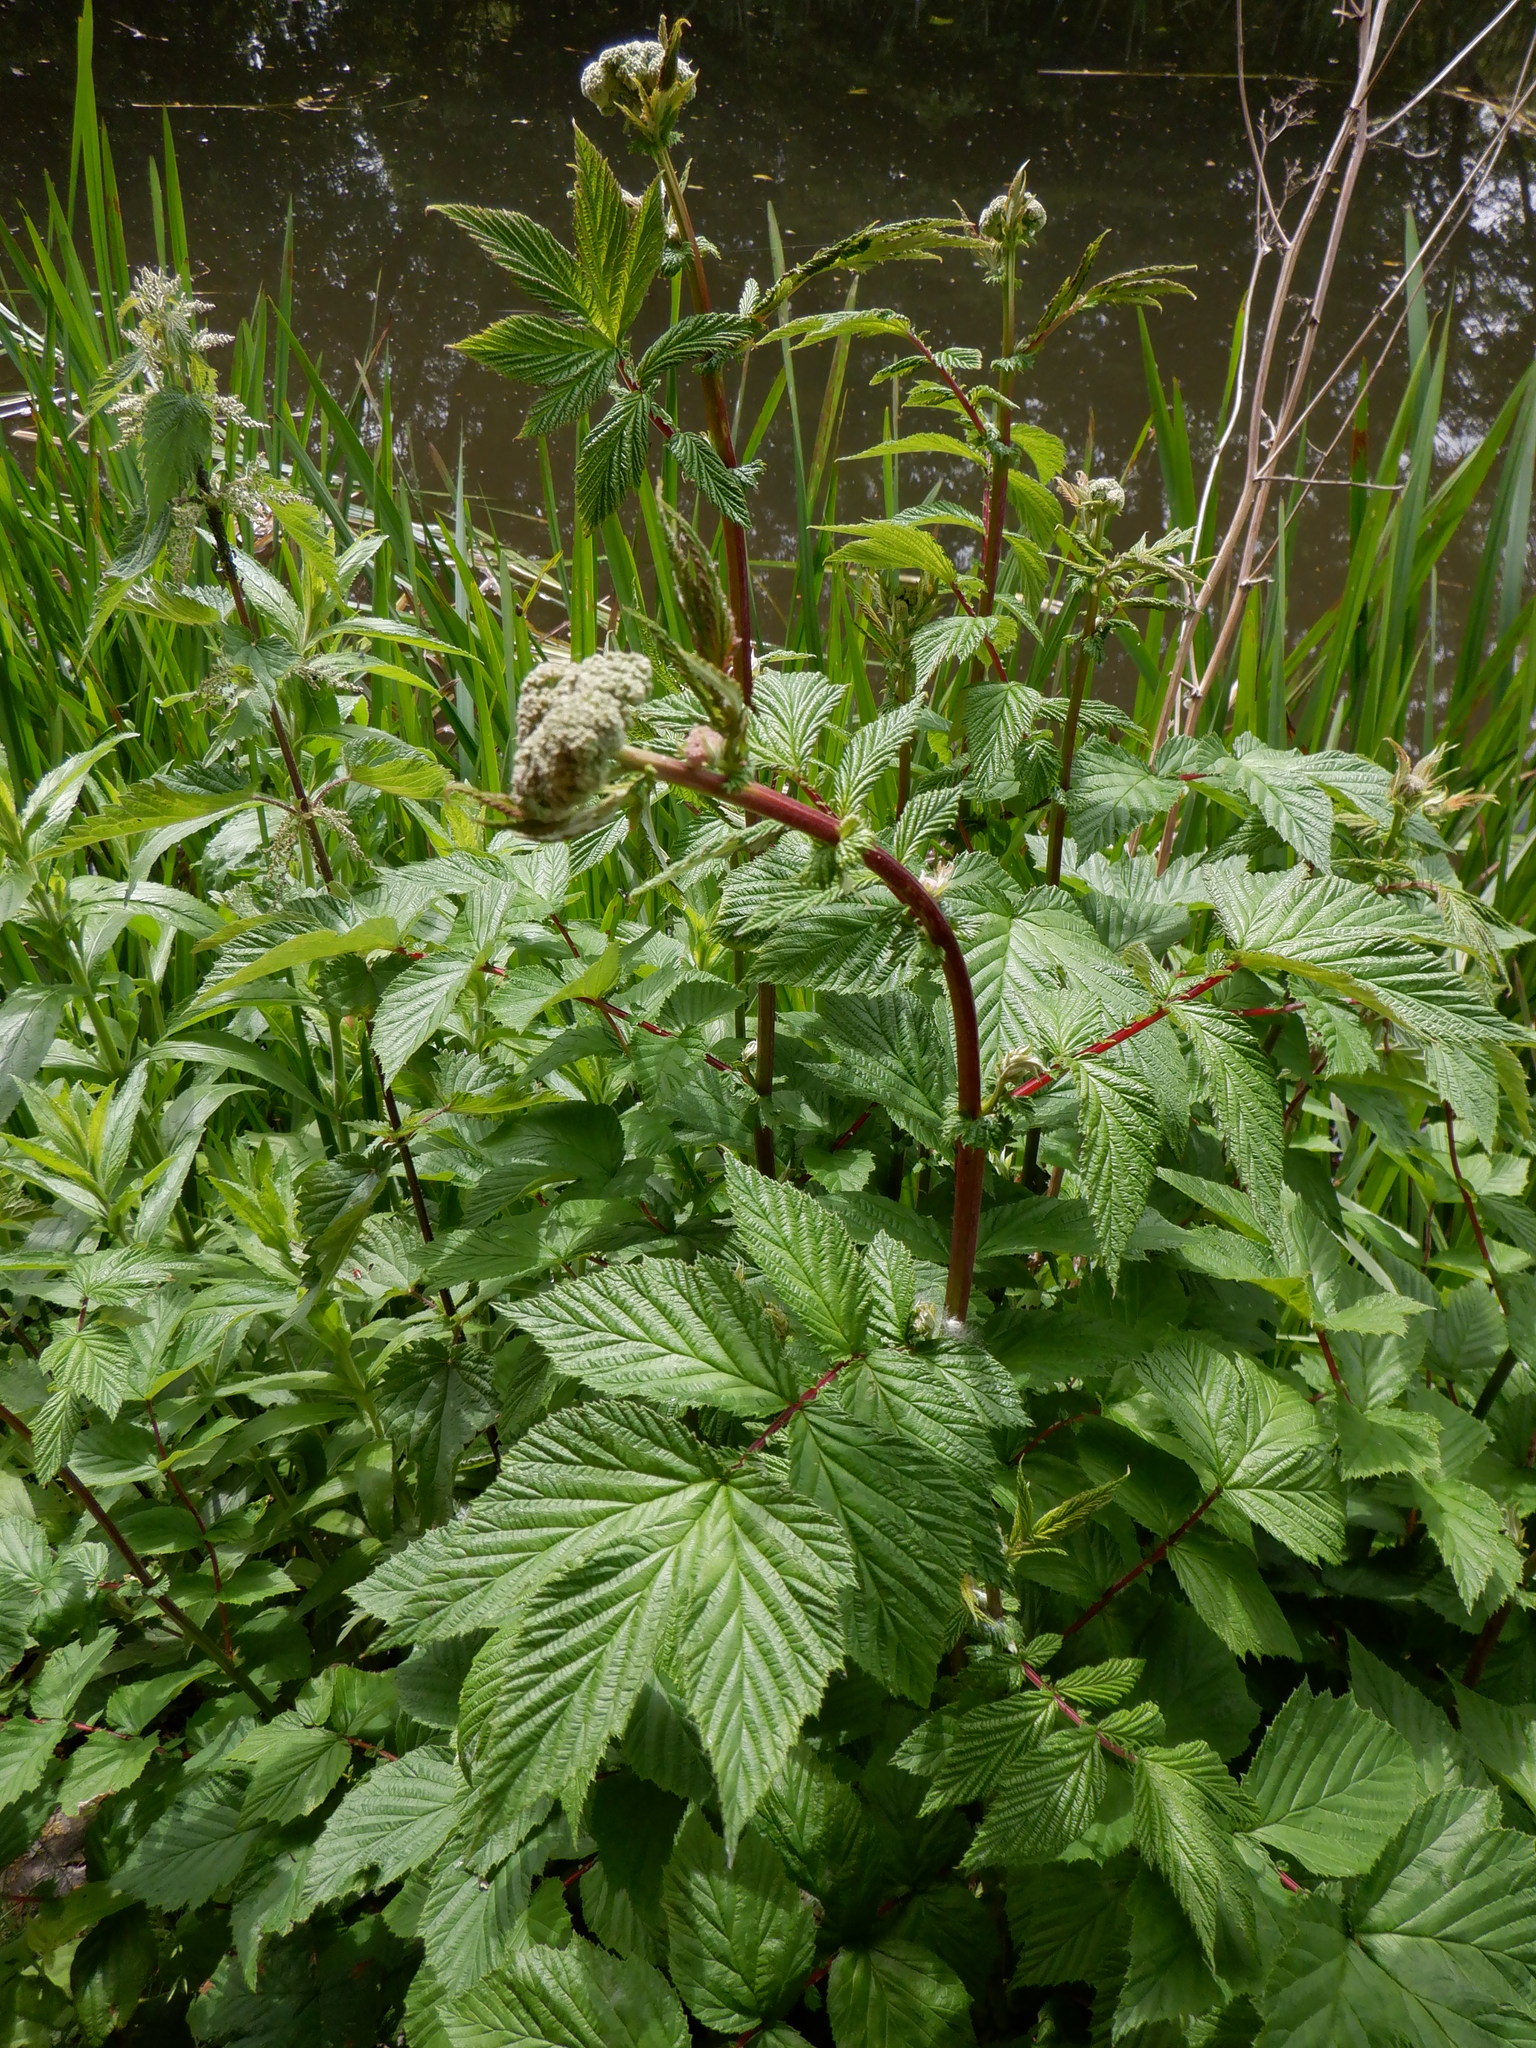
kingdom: Plantae
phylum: Tracheophyta
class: Magnoliopsida
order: Rosales
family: Rosaceae
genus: Filipendula
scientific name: Filipendula ulmaria
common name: Meadowsweet
